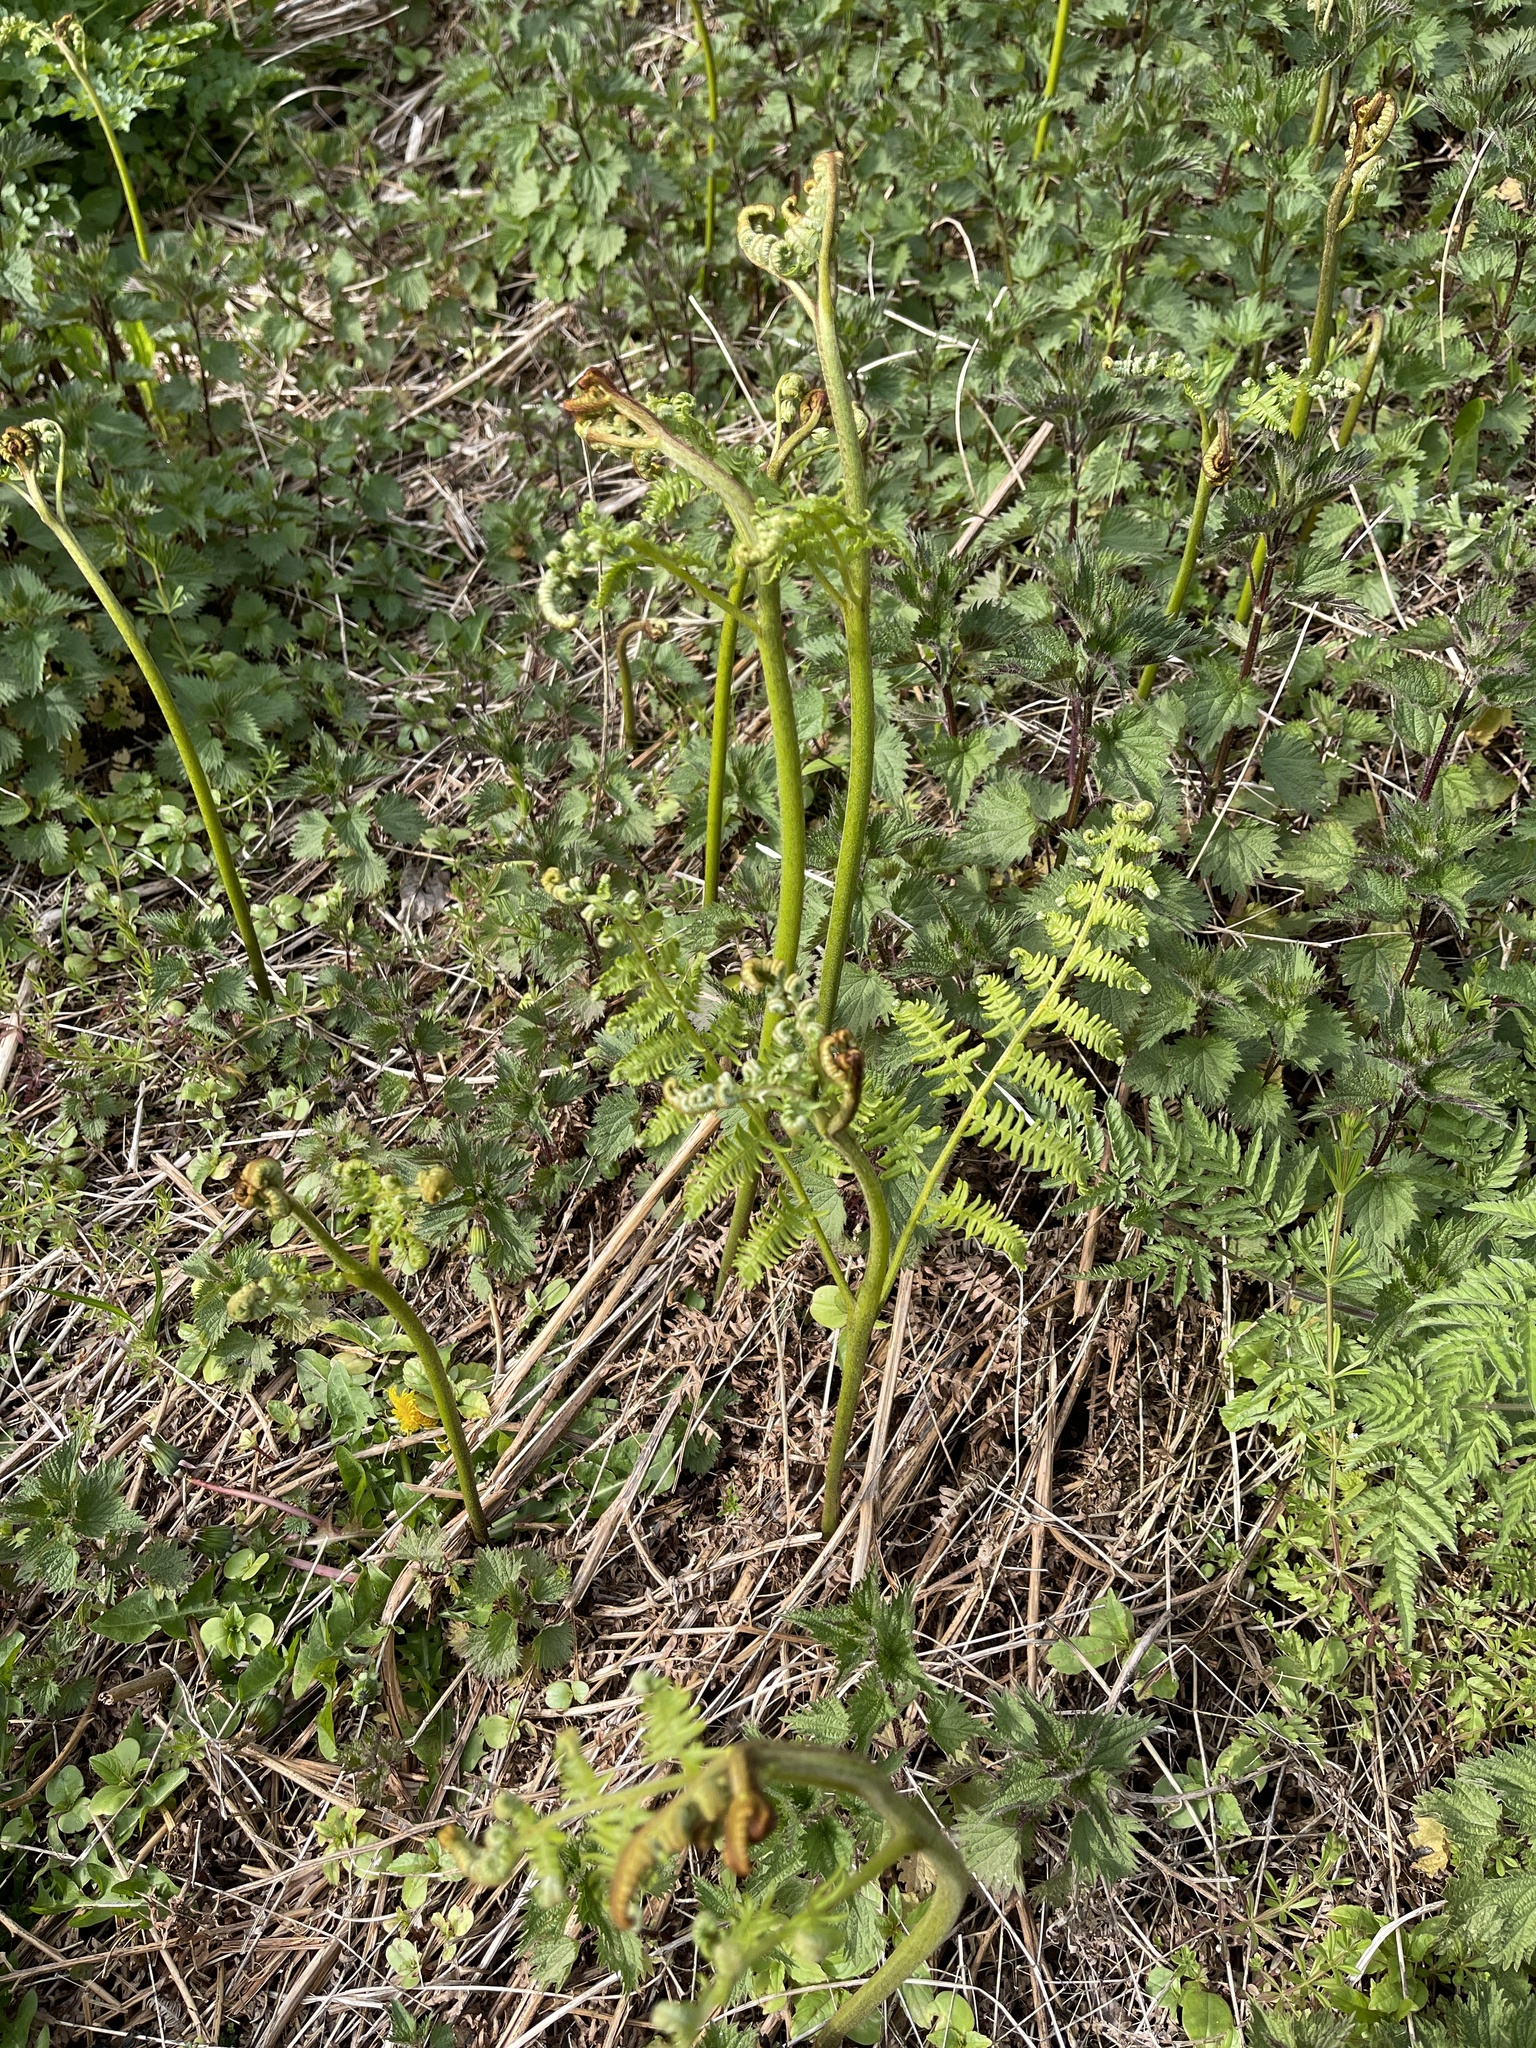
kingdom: Plantae
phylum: Tracheophyta
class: Polypodiopsida
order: Polypodiales
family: Dennstaedtiaceae
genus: Pteridium
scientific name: Pteridium aquilinum
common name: Bracken
